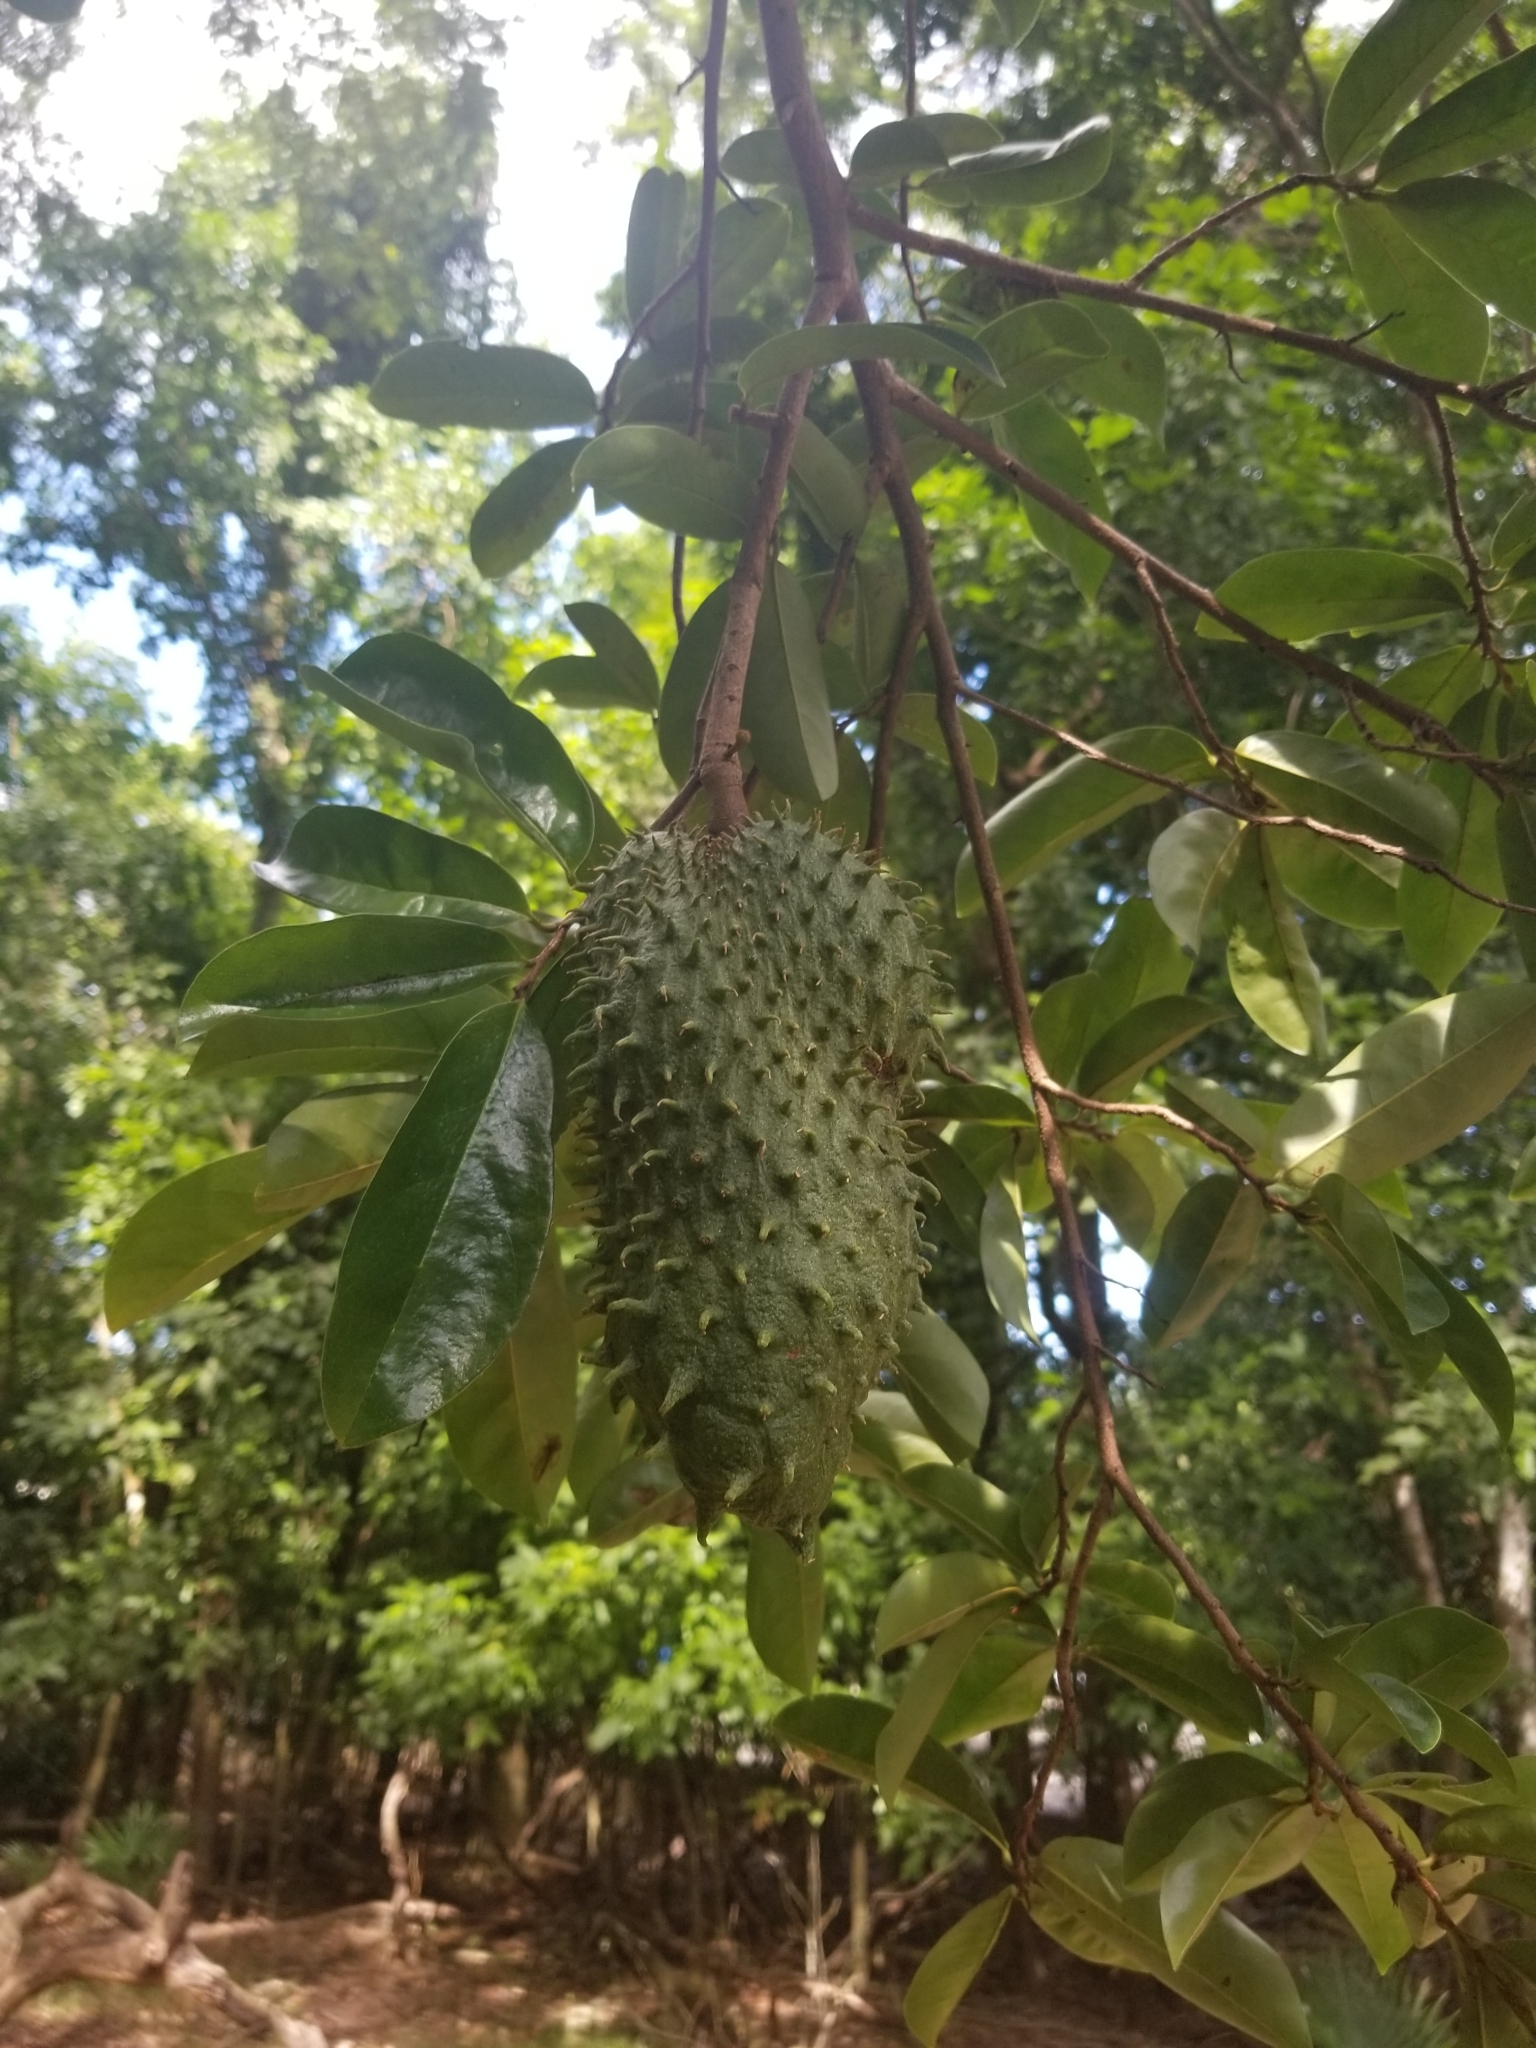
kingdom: Plantae
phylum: Tracheophyta
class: Magnoliopsida
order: Magnoliales
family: Annonaceae
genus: Annona
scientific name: Annona muricata
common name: Soursop
